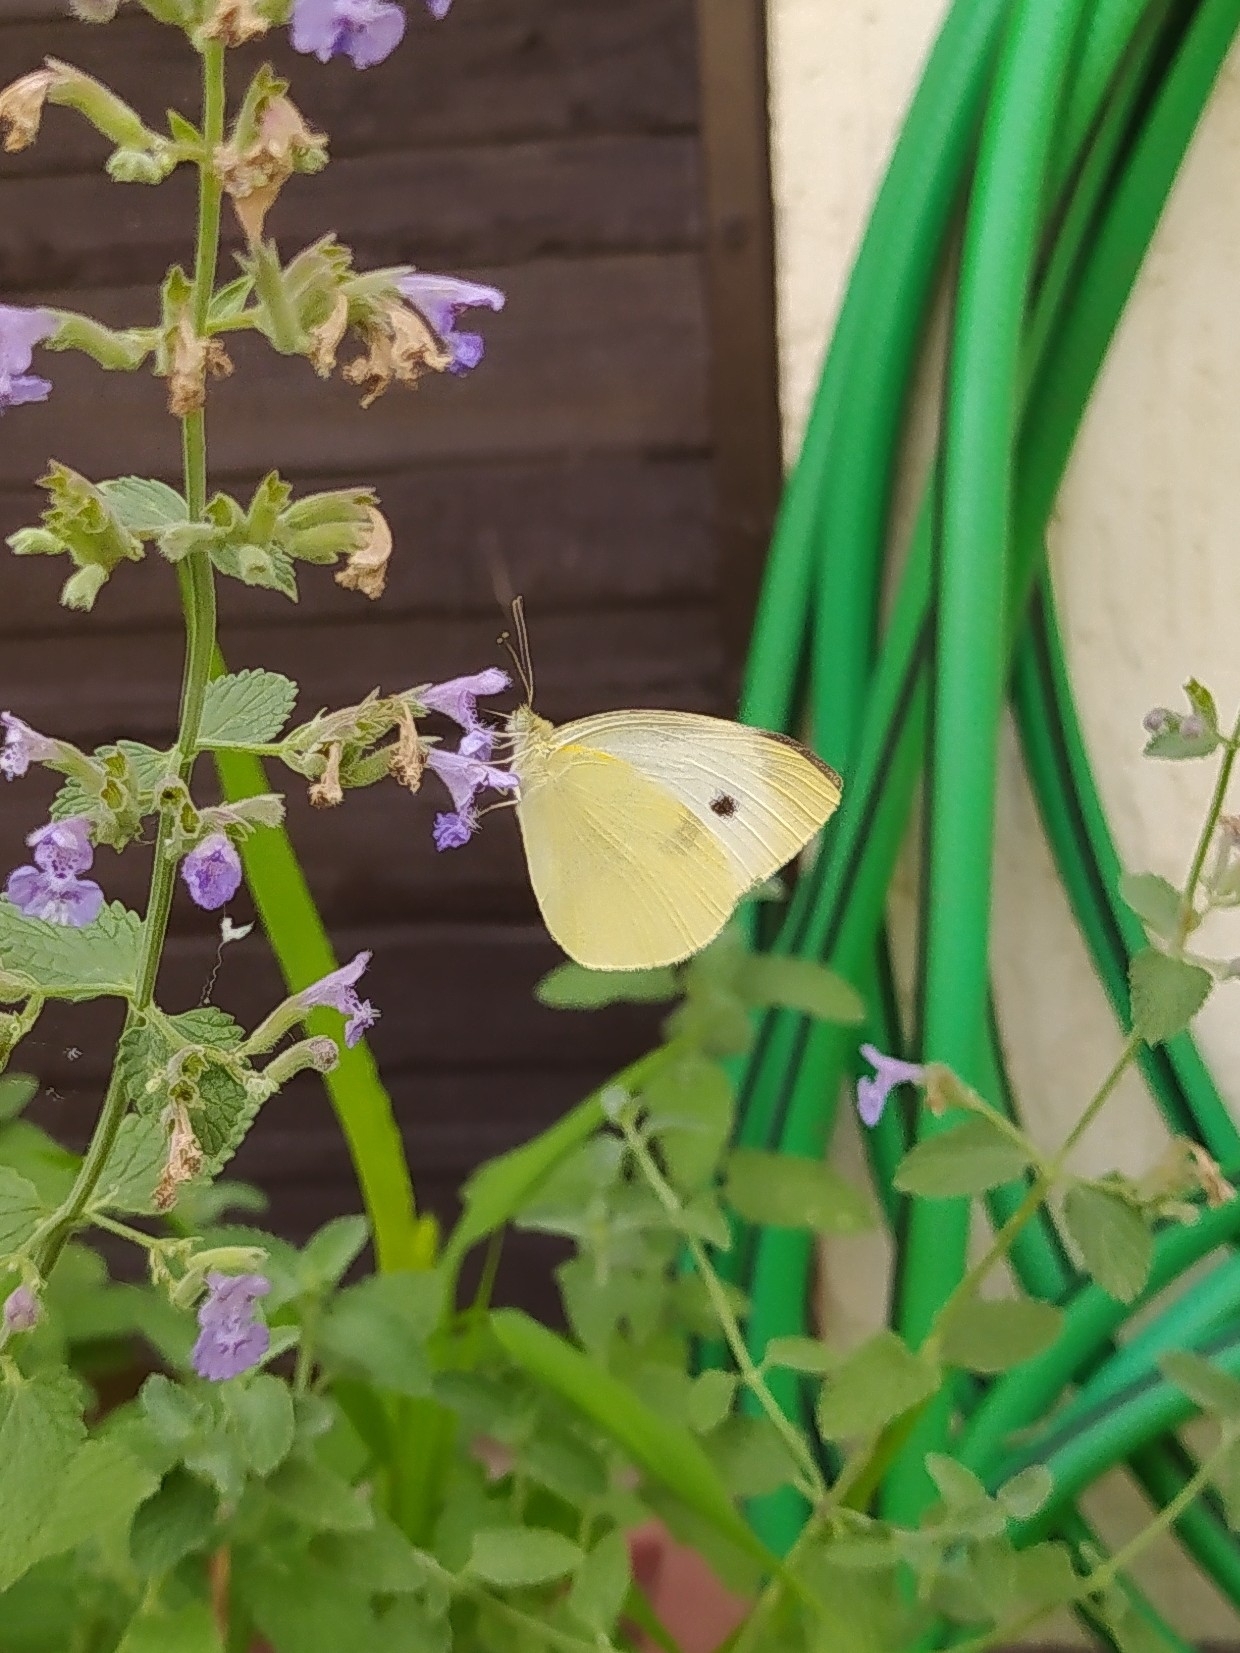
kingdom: Animalia
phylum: Arthropoda
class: Insecta
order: Lepidoptera
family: Pieridae
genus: Pieris
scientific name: Pieris rapae
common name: Small white
